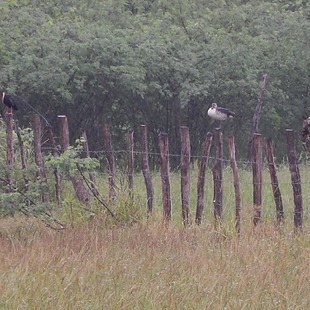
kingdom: Animalia
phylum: Chordata
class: Aves
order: Anseriformes
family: Anatidae
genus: Sarkidiornis
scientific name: Sarkidiornis sylvicola
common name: Comb duck
